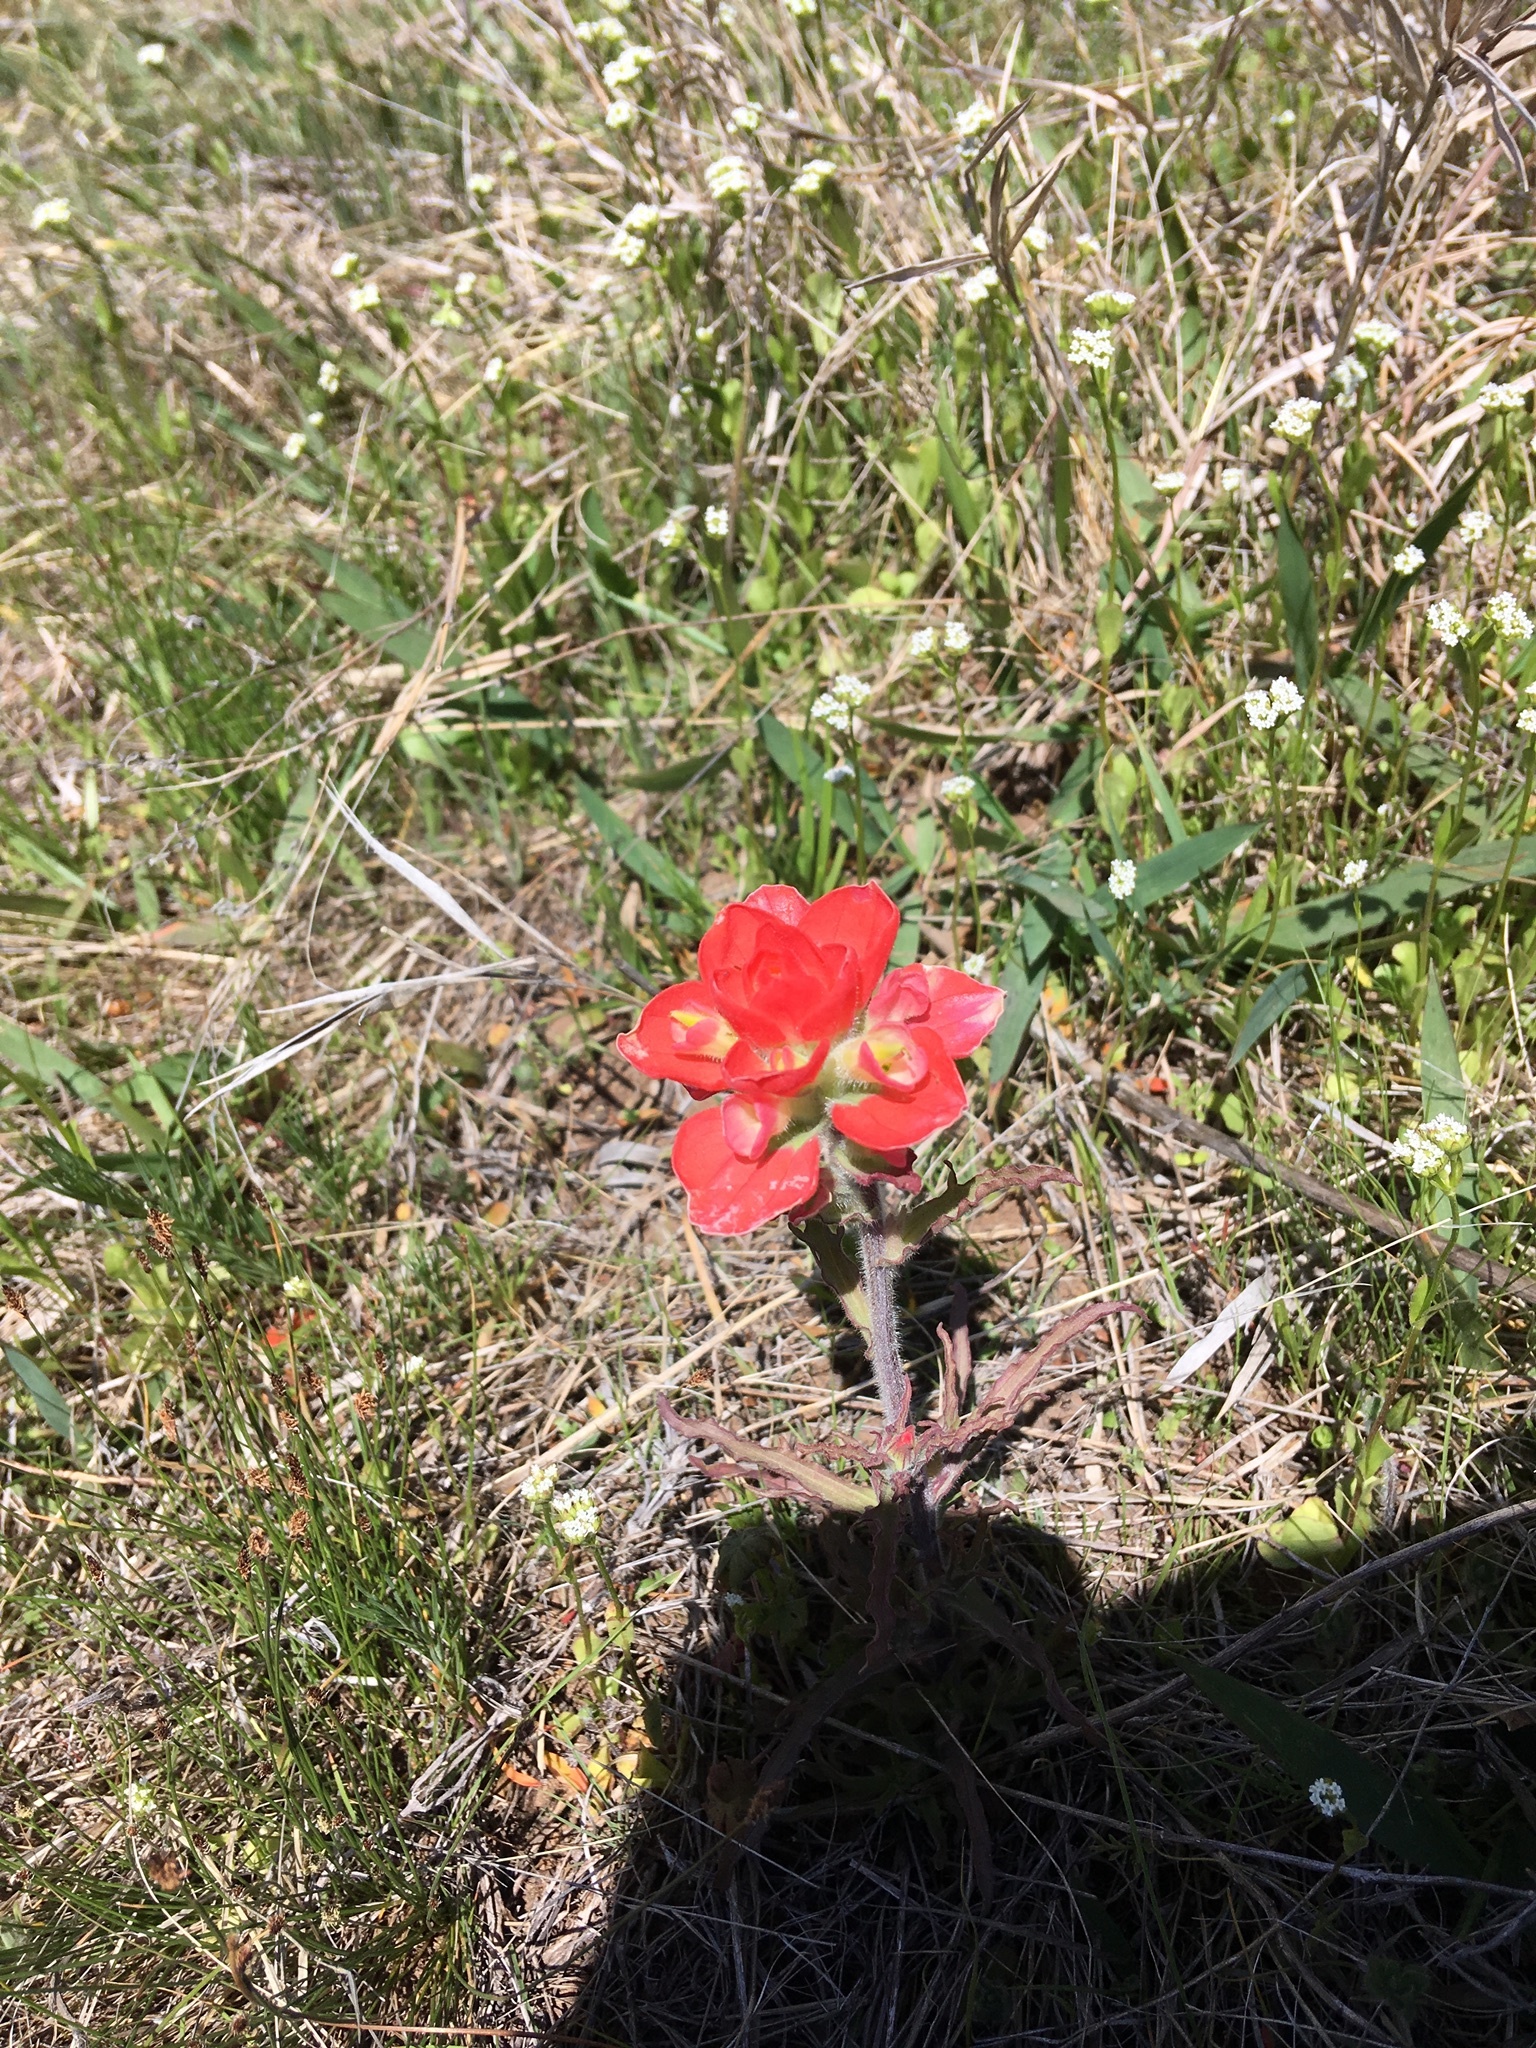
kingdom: Plantae
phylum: Tracheophyta
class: Magnoliopsida
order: Lamiales
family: Orobanchaceae
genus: Castilleja
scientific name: Castilleja indivisa
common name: Texas paintbrush
